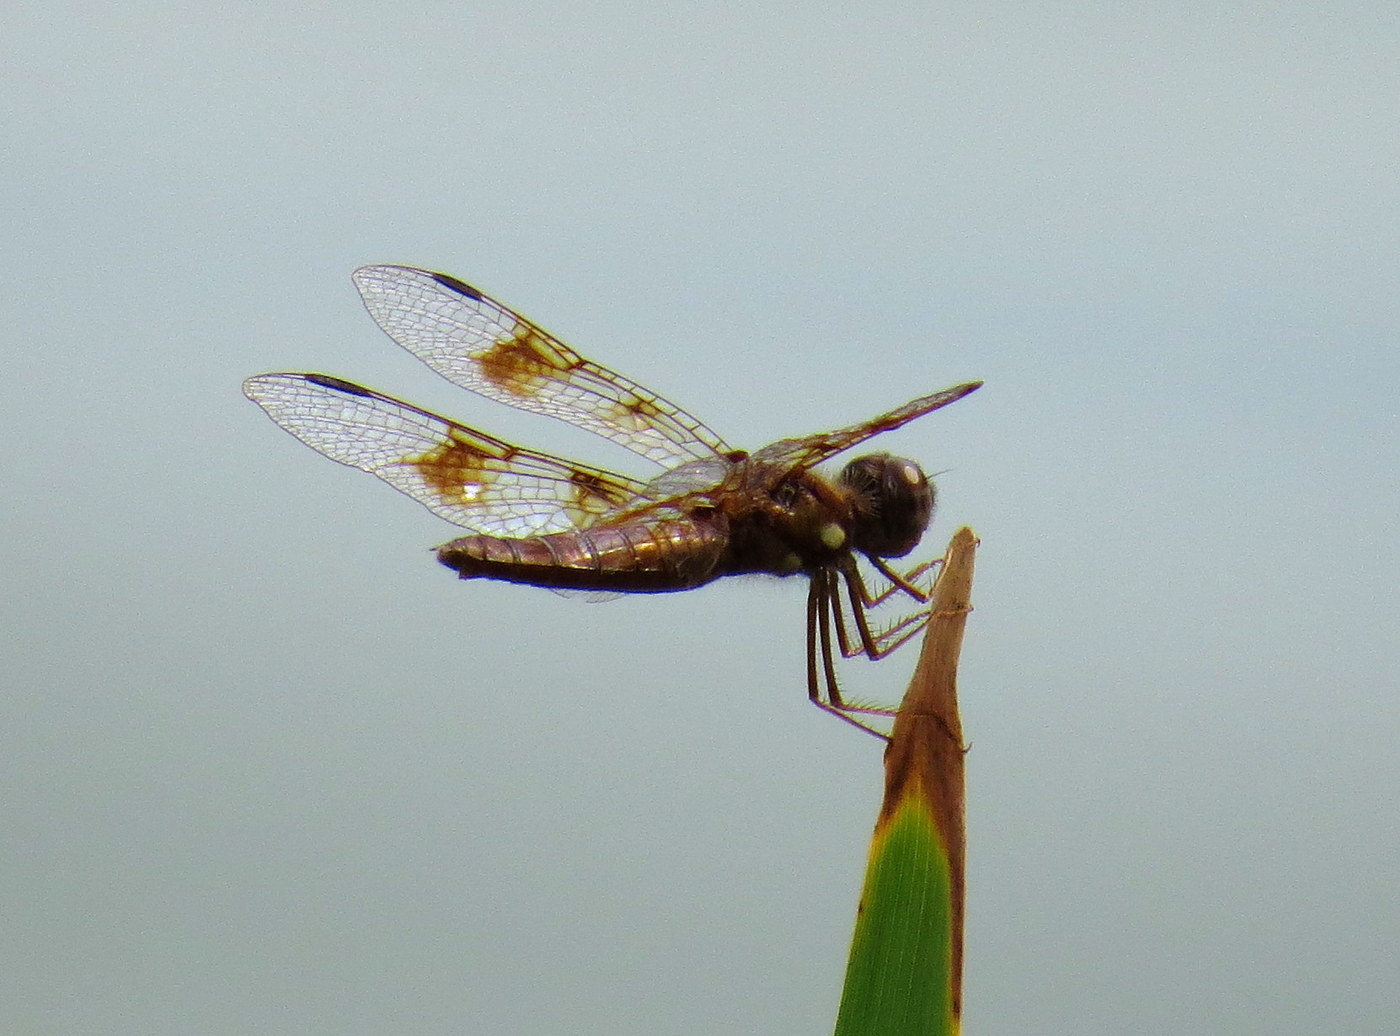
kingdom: Animalia
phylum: Arthropoda
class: Insecta
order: Odonata
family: Libellulidae
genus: Perithemis
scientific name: Perithemis tenera
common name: Eastern amberwing
